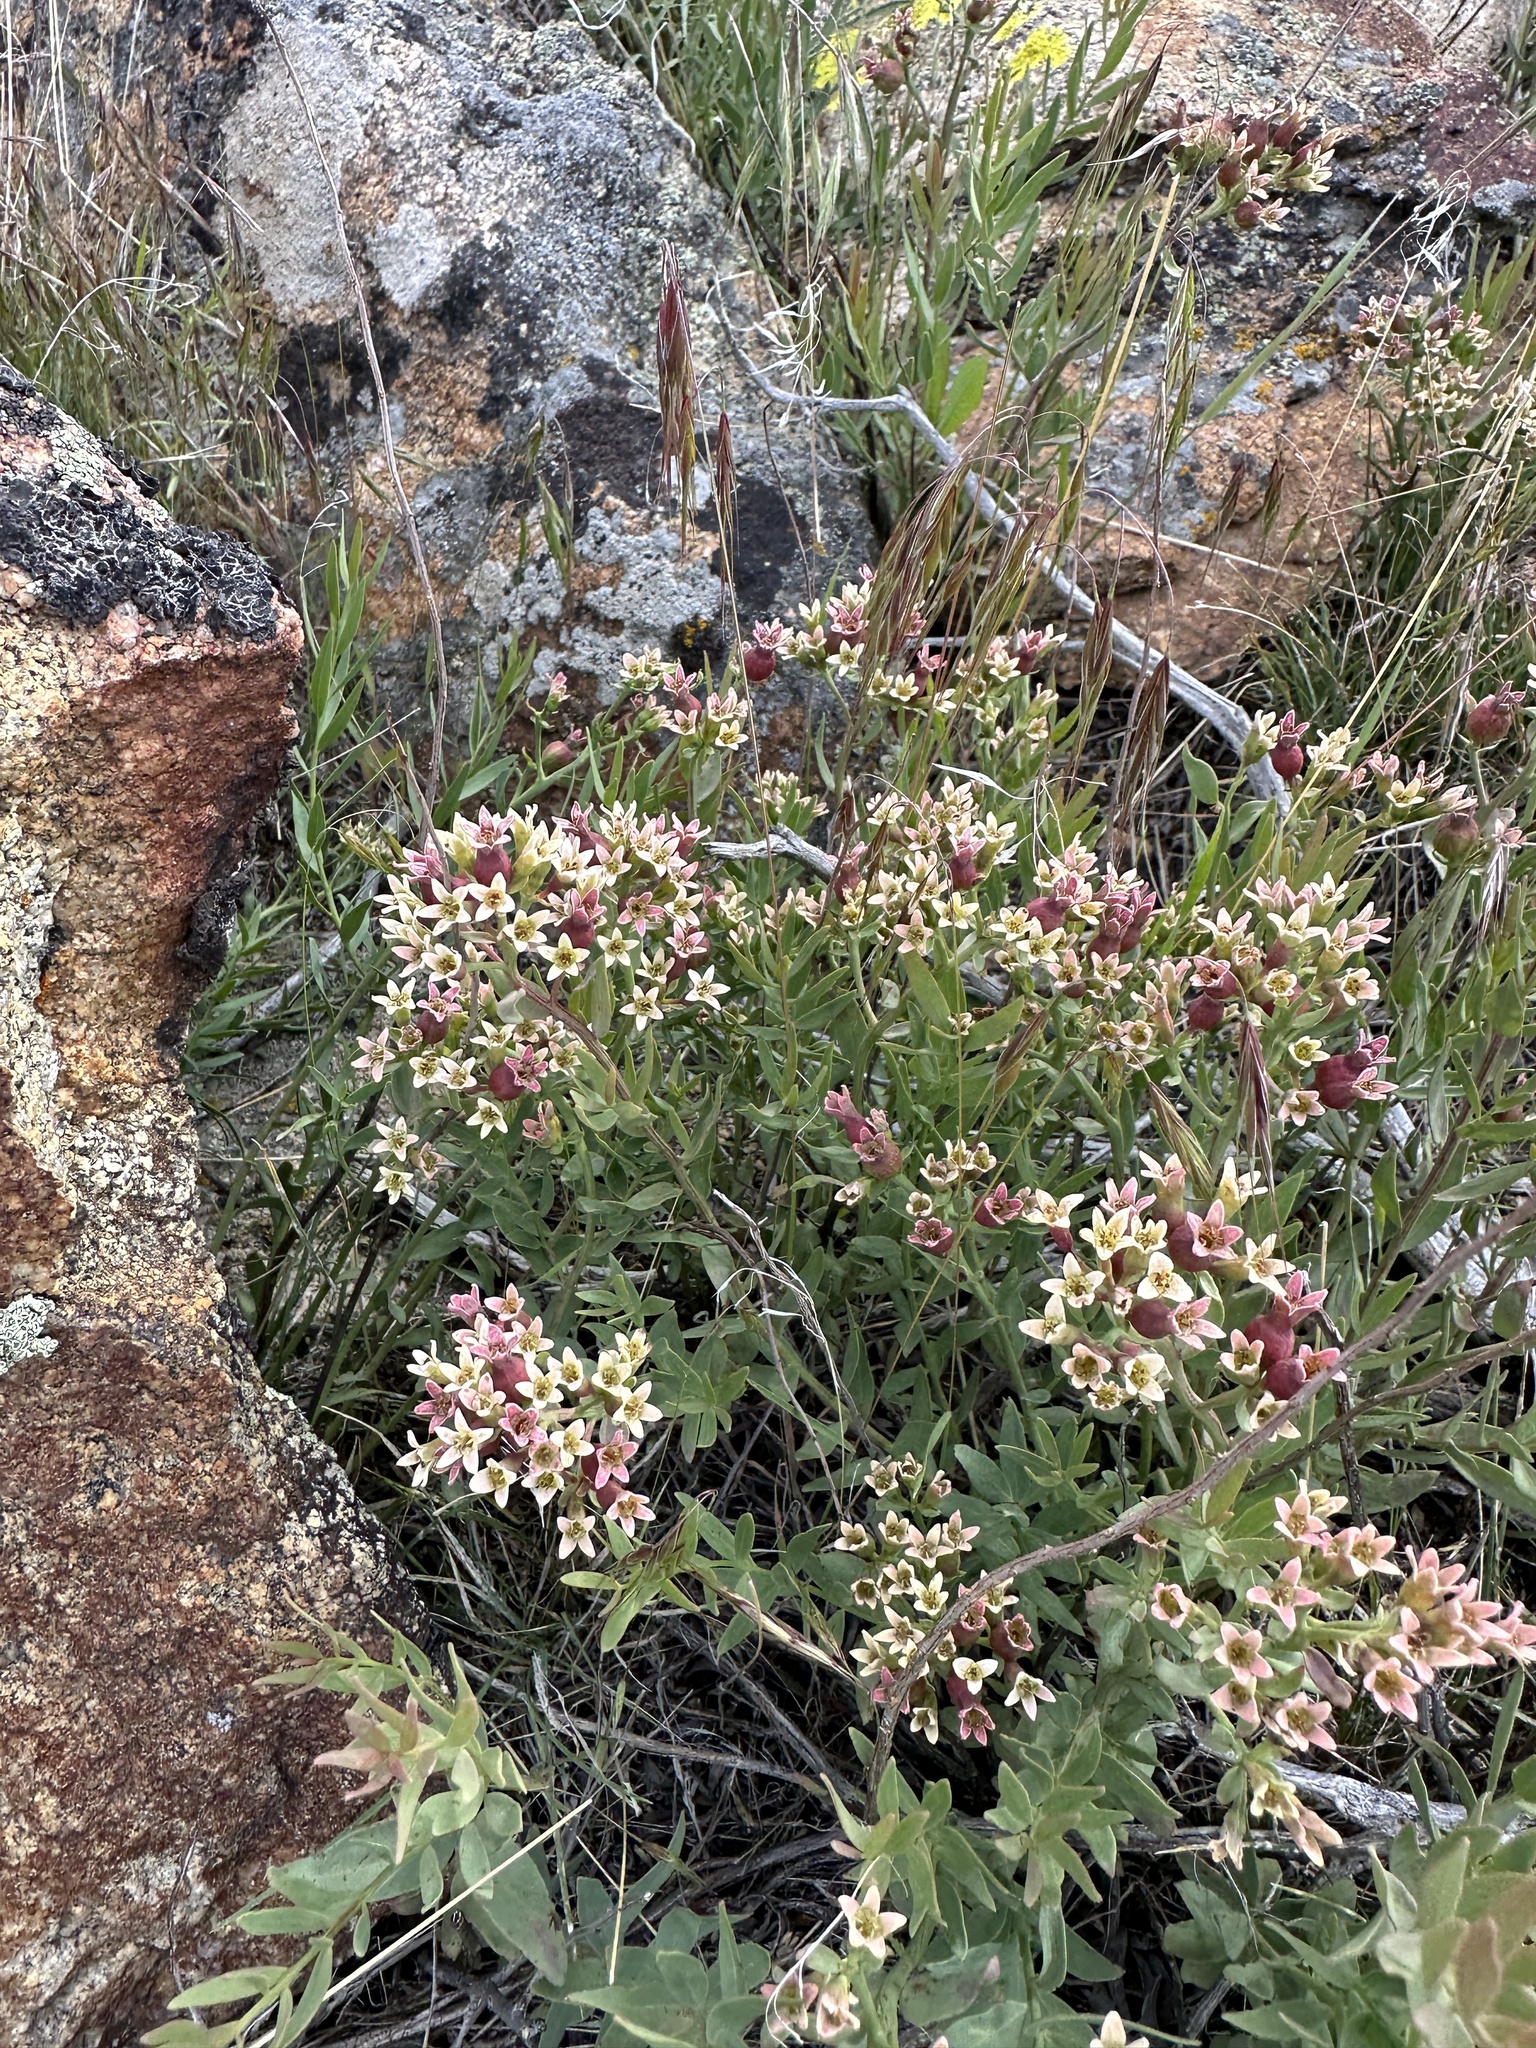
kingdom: Plantae
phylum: Tracheophyta
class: Magnoliopsida
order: Santalales
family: Comandraceae
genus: Comandra
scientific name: Comandra umbellata
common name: Bastard toadflax
